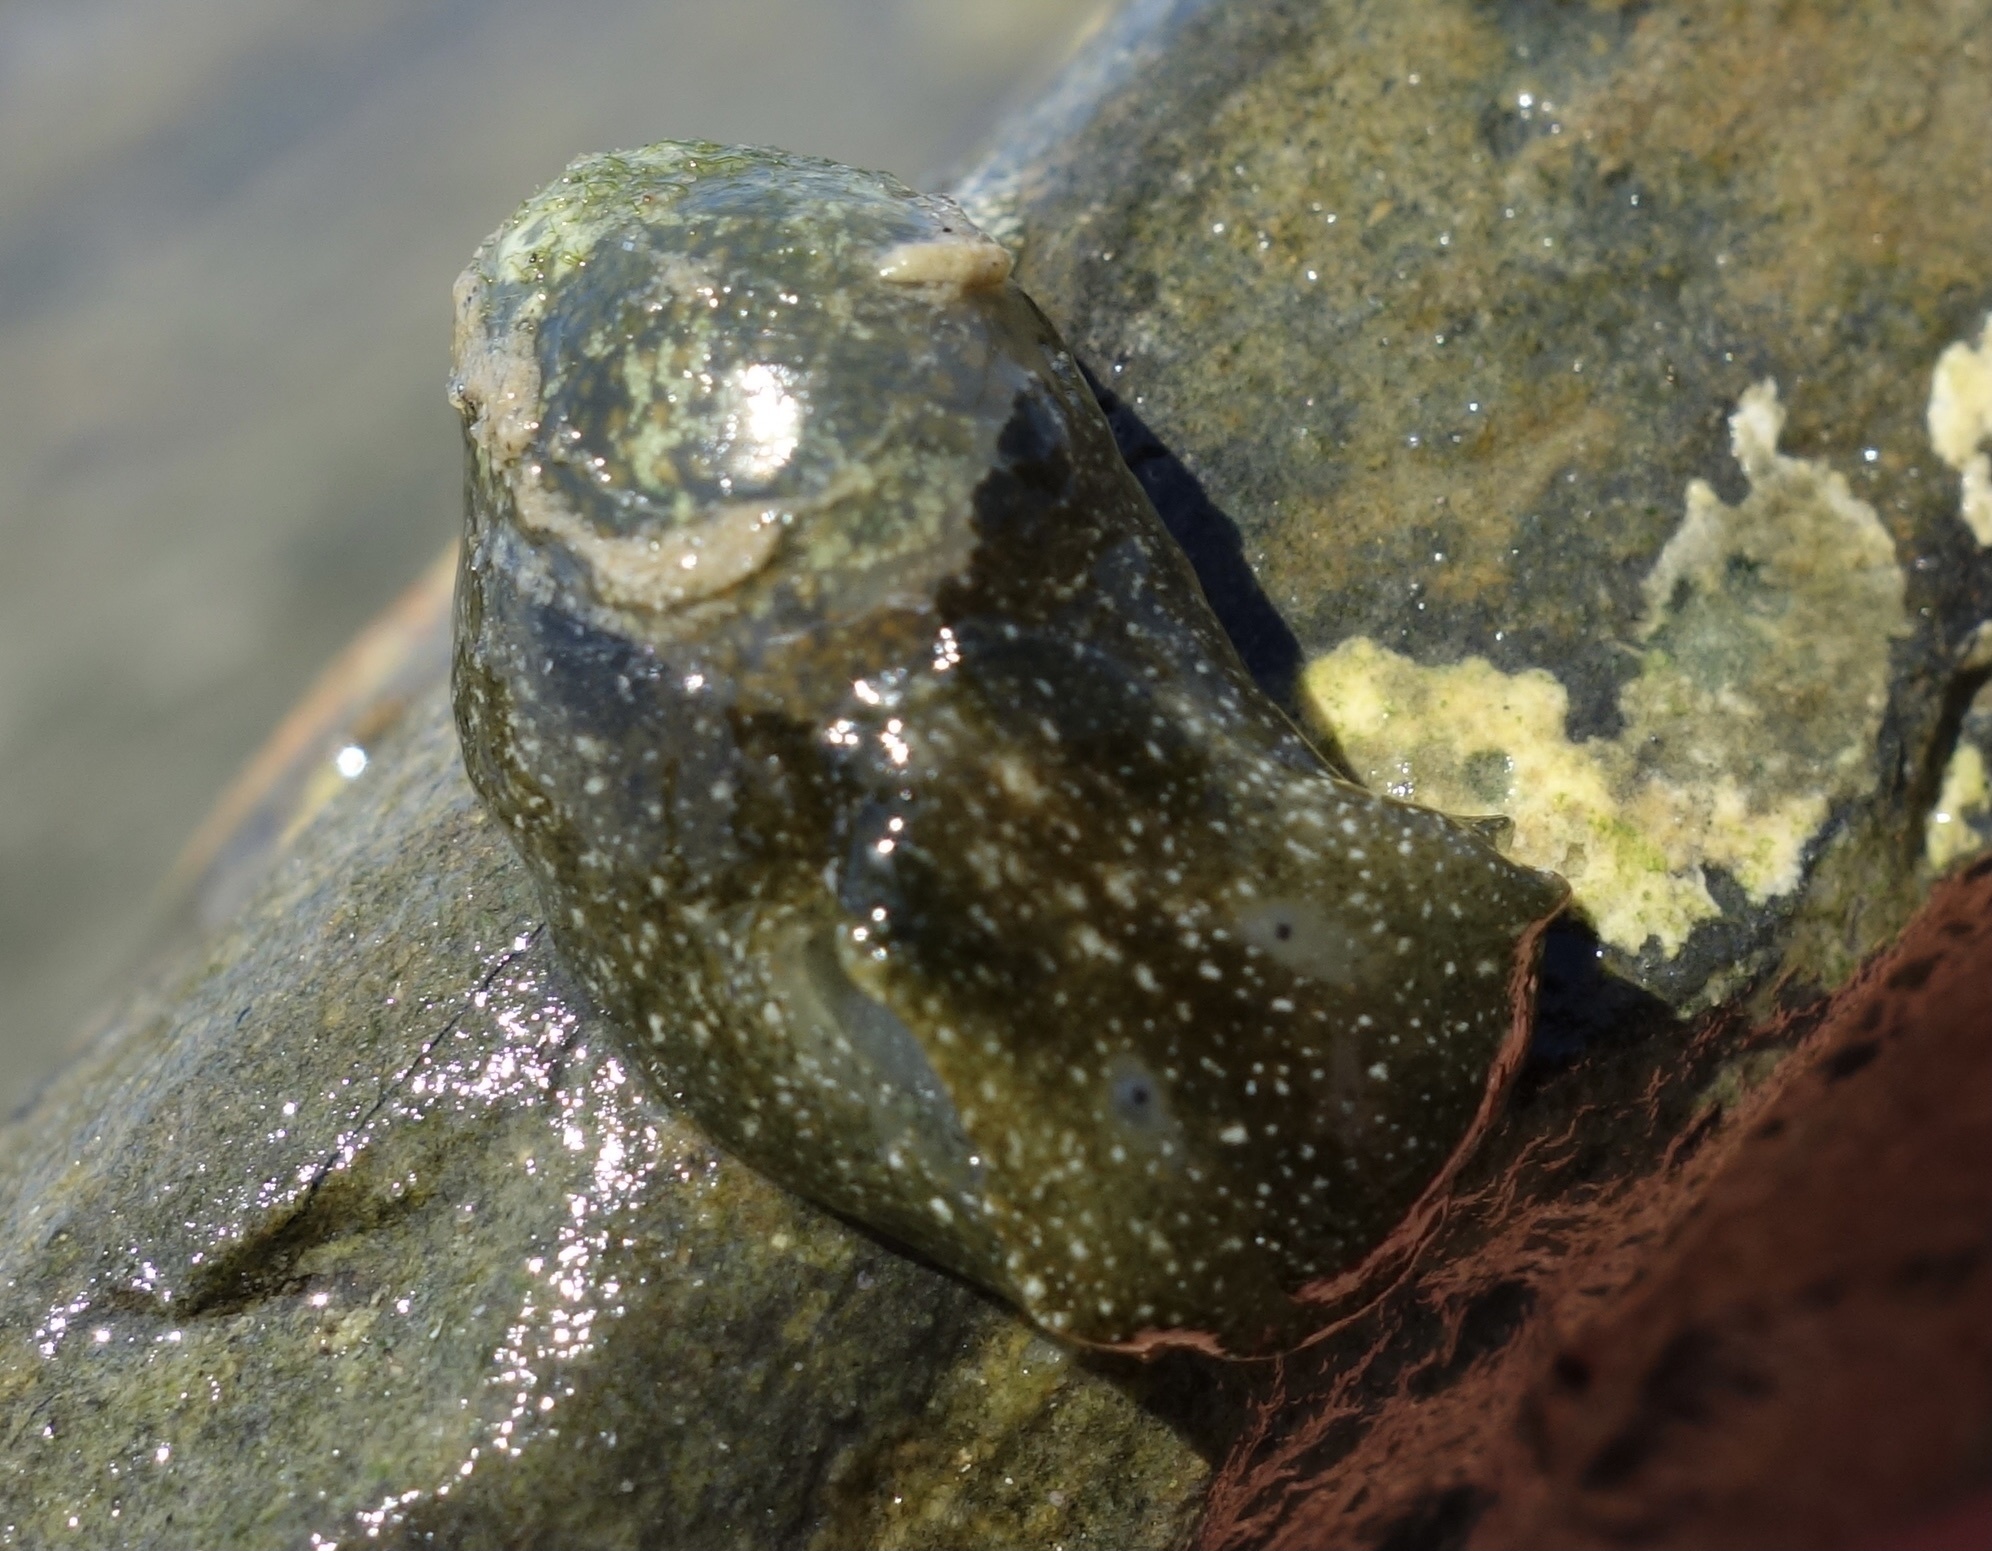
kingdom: Animalia
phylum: Mollusca
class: Gastropoda
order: Cephalaspidea
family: Haminoeidae
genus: Haminoea
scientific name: Haminoea virescens
